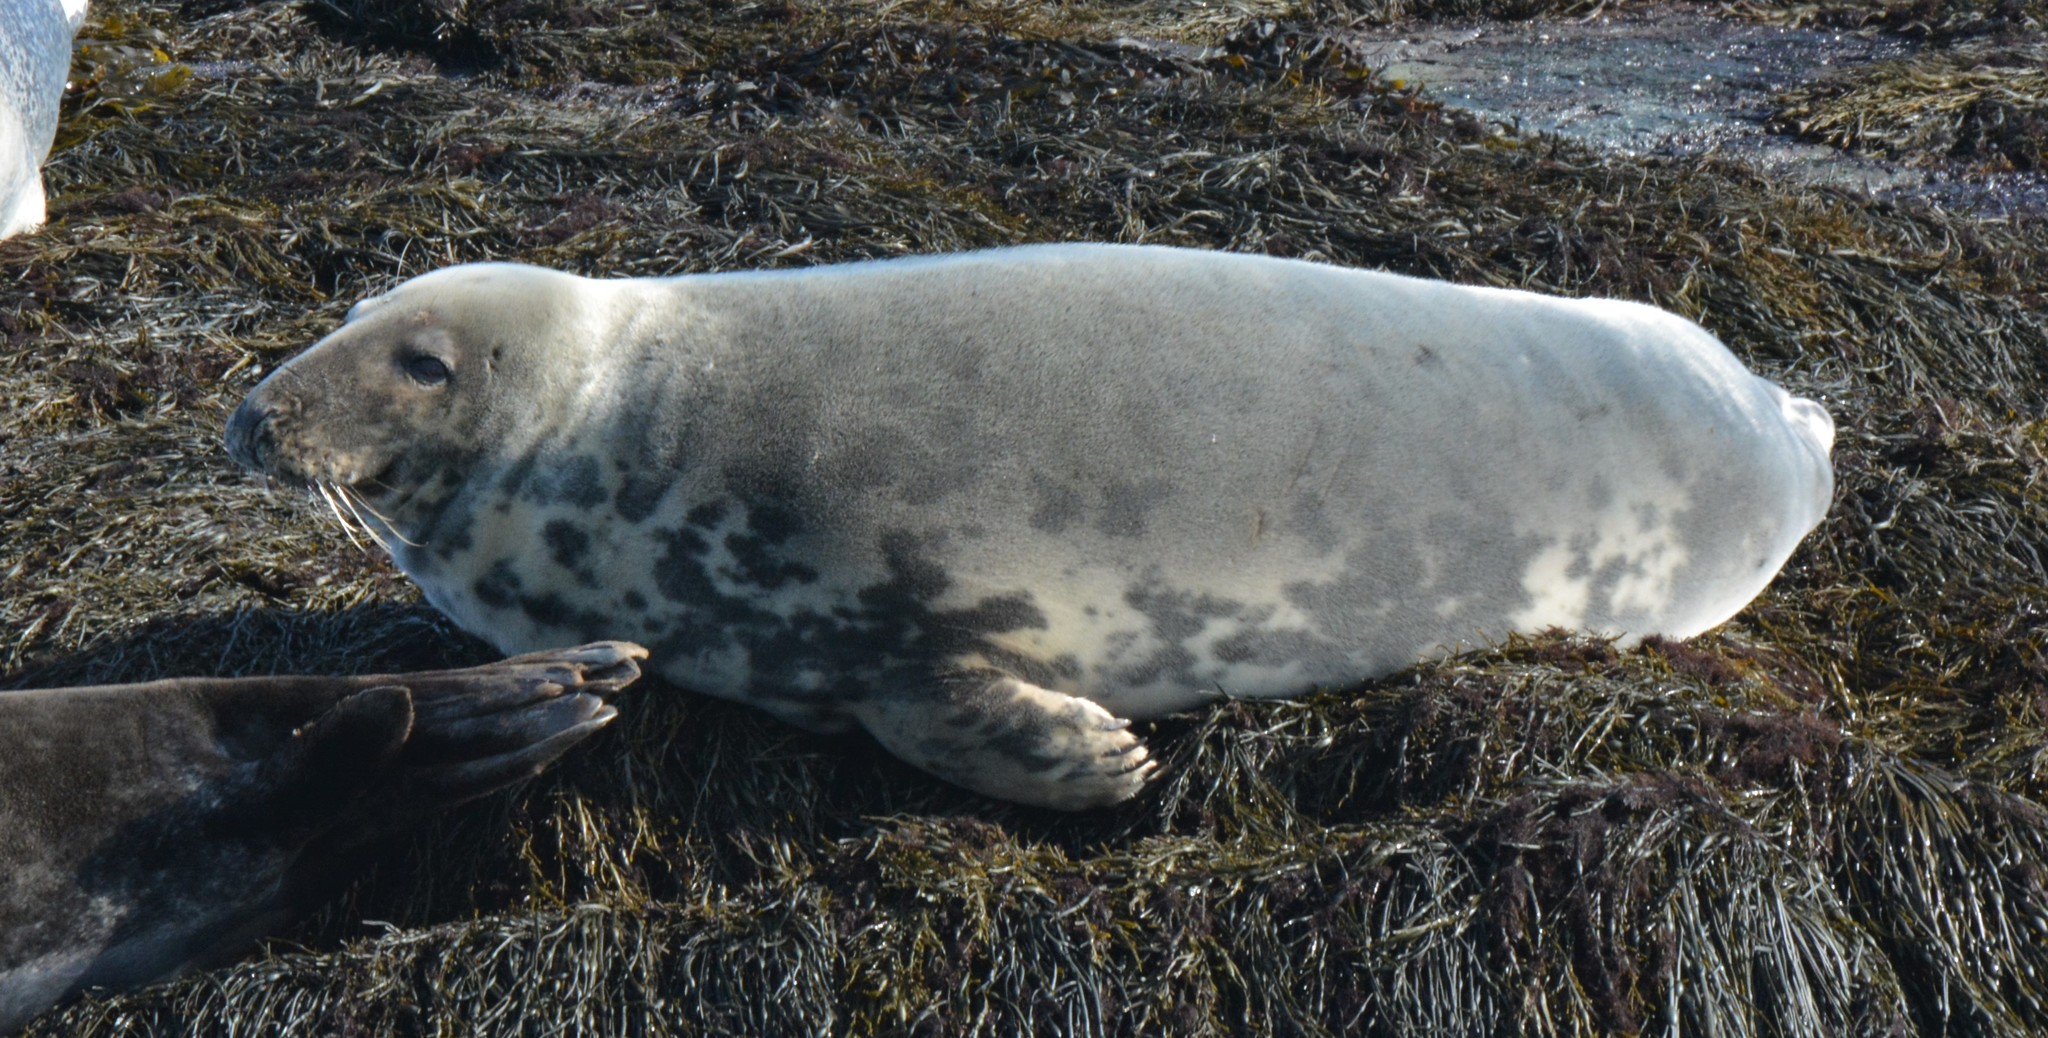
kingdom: Animalia
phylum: Chordata
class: Mammalia
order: Carnivora
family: Phocidae
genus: Halichoerus
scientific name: Halichoerus grypus
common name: Grey seal
